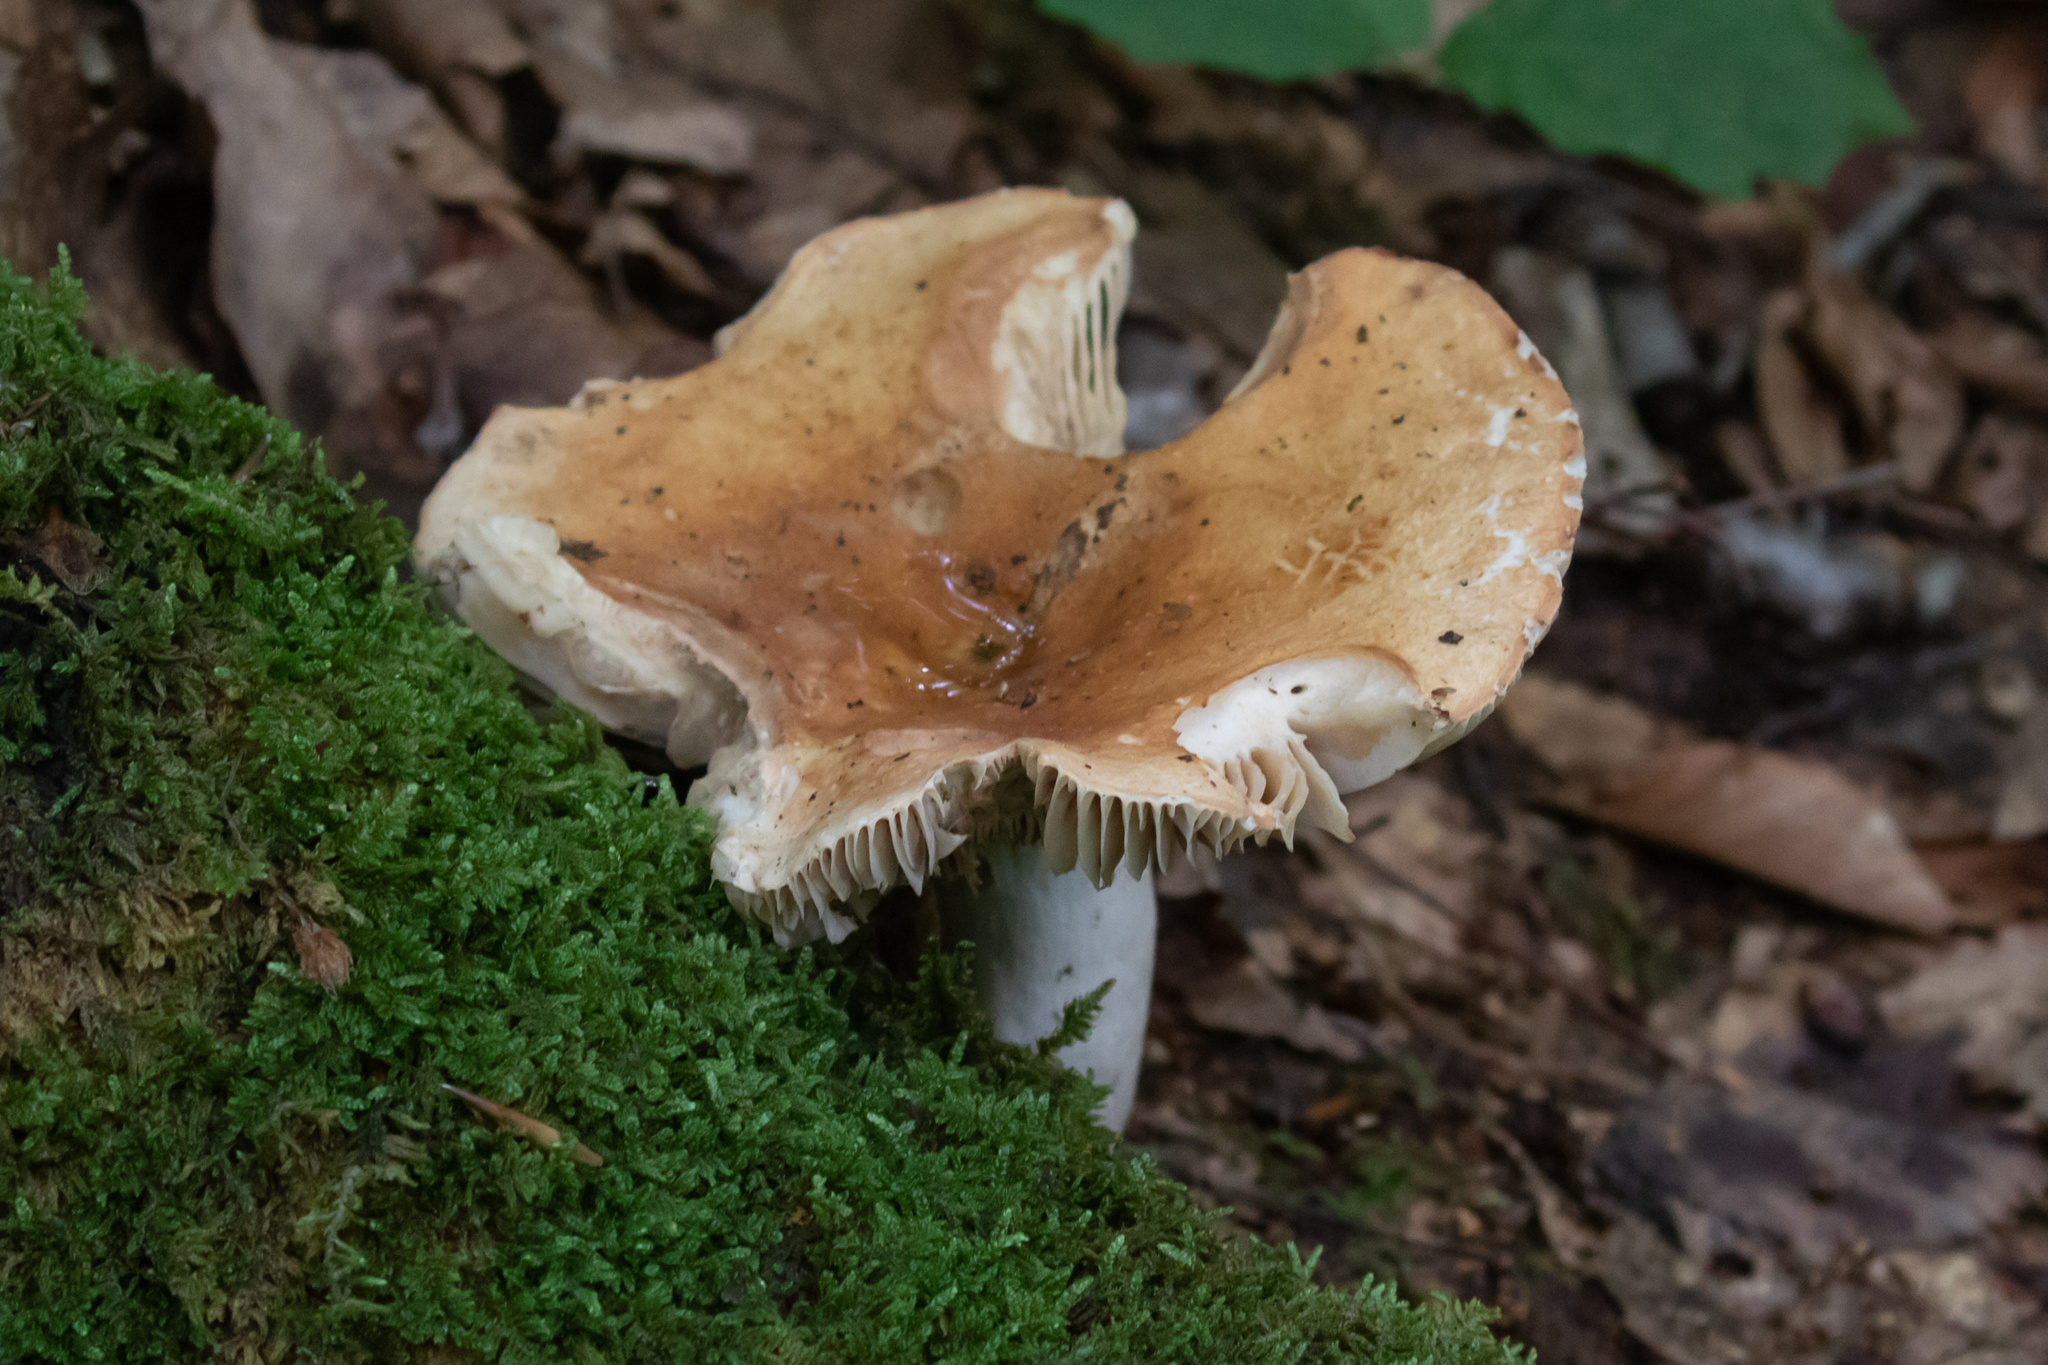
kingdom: Fungi
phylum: Basidiomycota
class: Agaricomycetes
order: Russulales
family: Russulaceae
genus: Russula
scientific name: Russula
